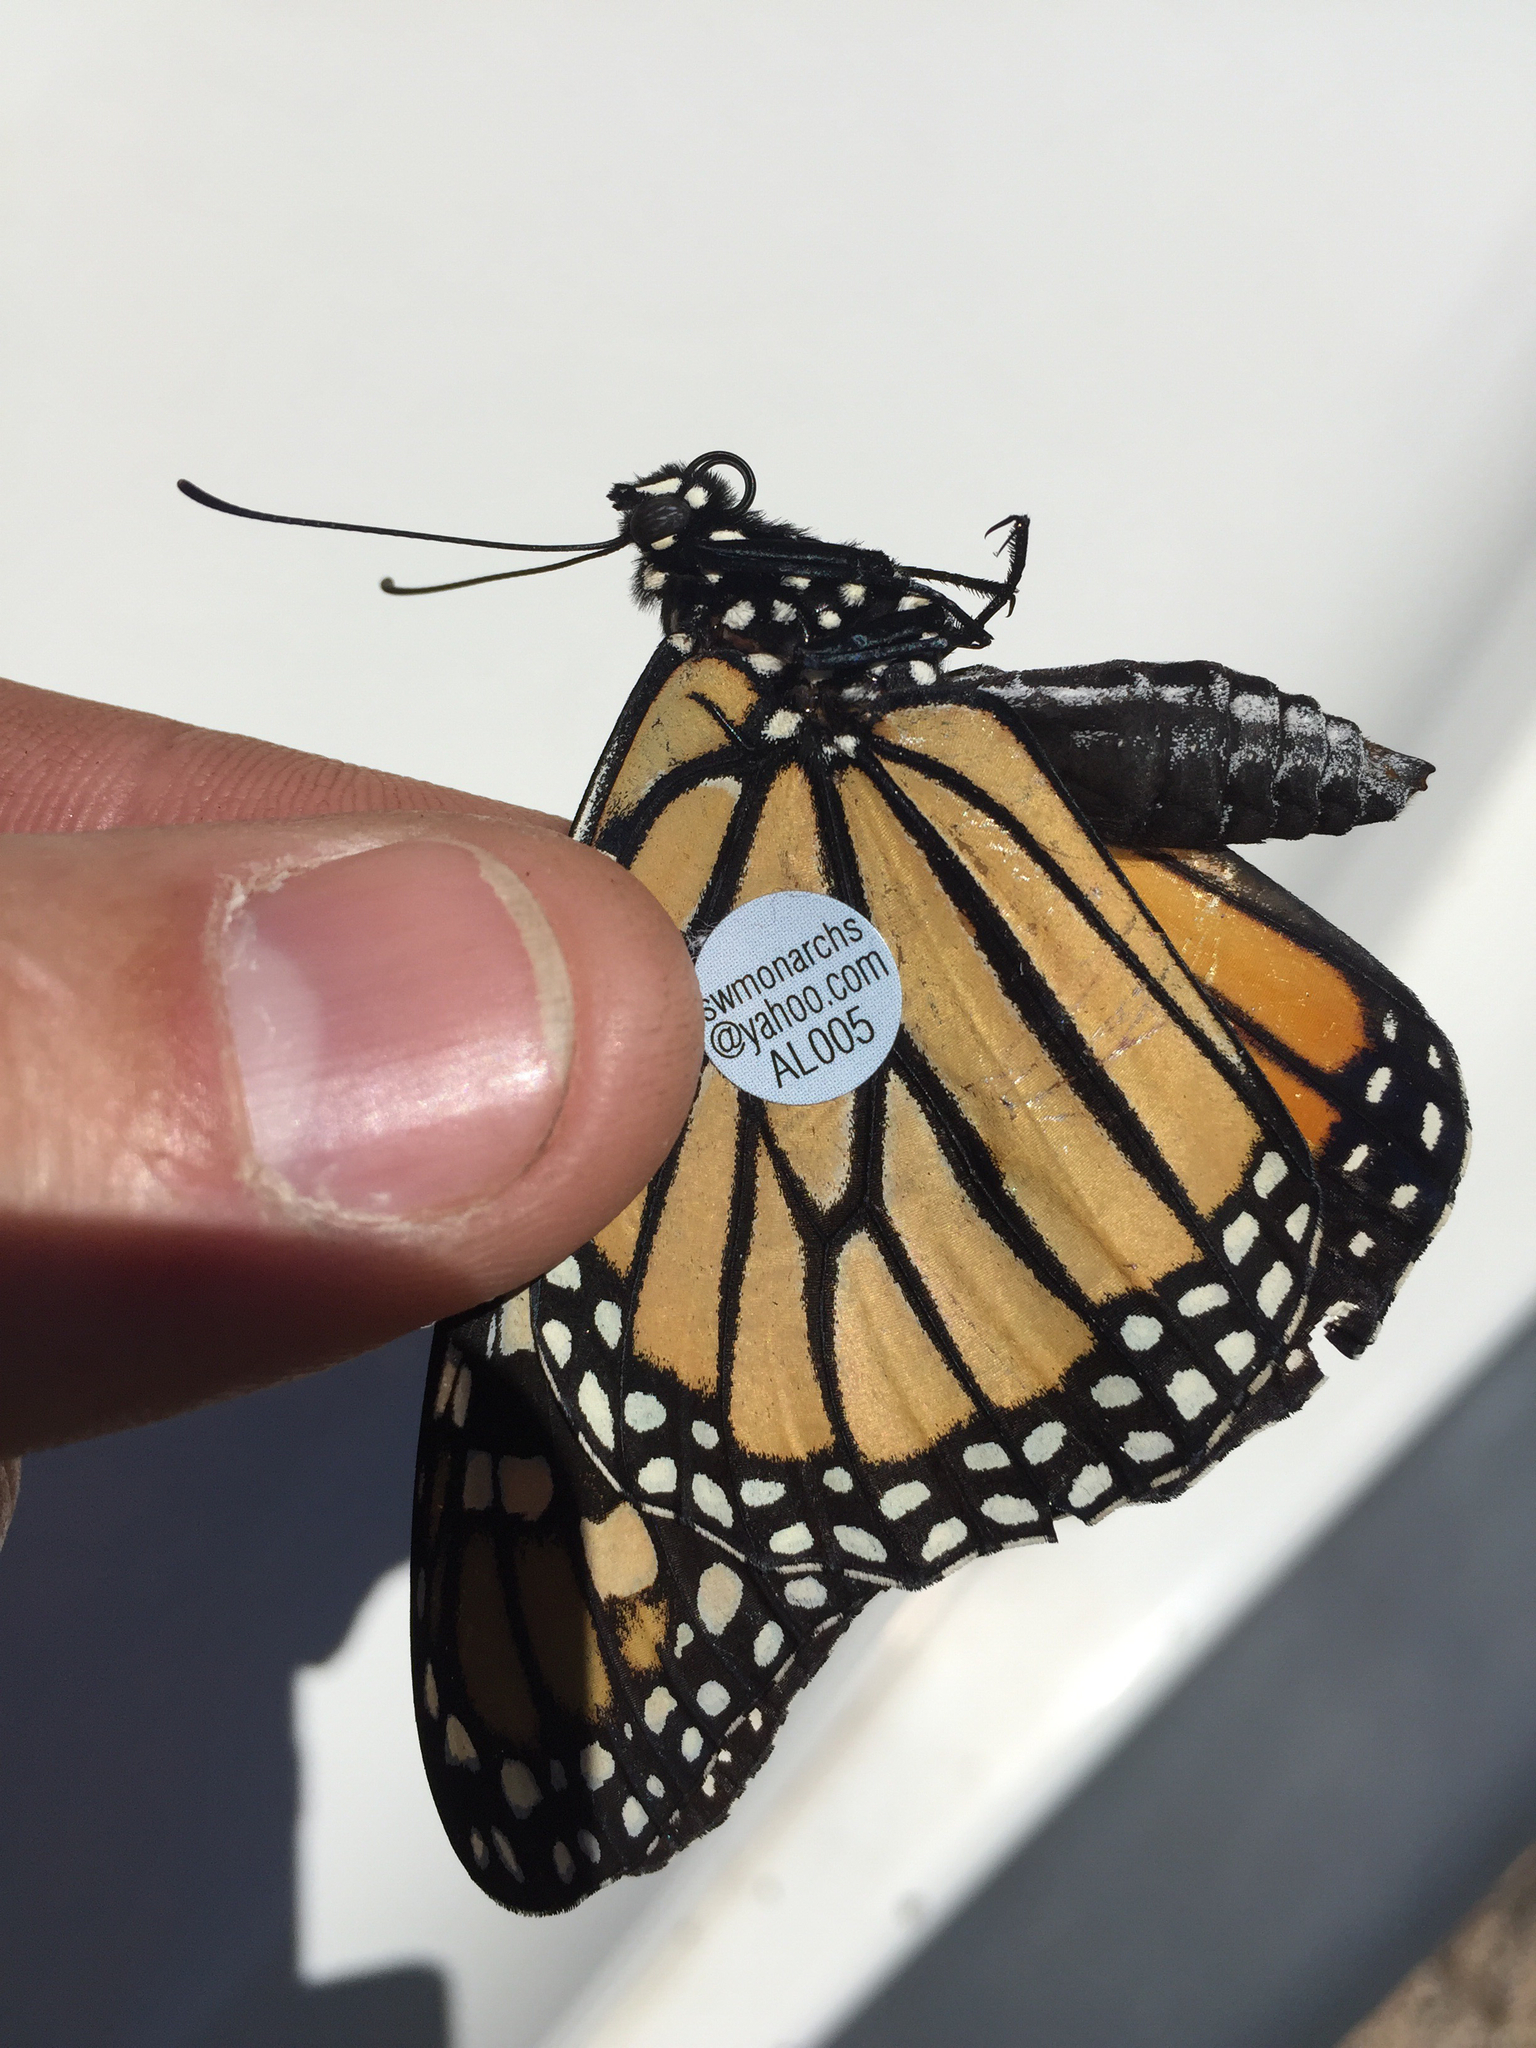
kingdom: Animalia
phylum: Arthropoda
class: Insecta
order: Lepidoptera
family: Nymphalidae
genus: Danaus
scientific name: Danaus plexippus
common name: Monarch
